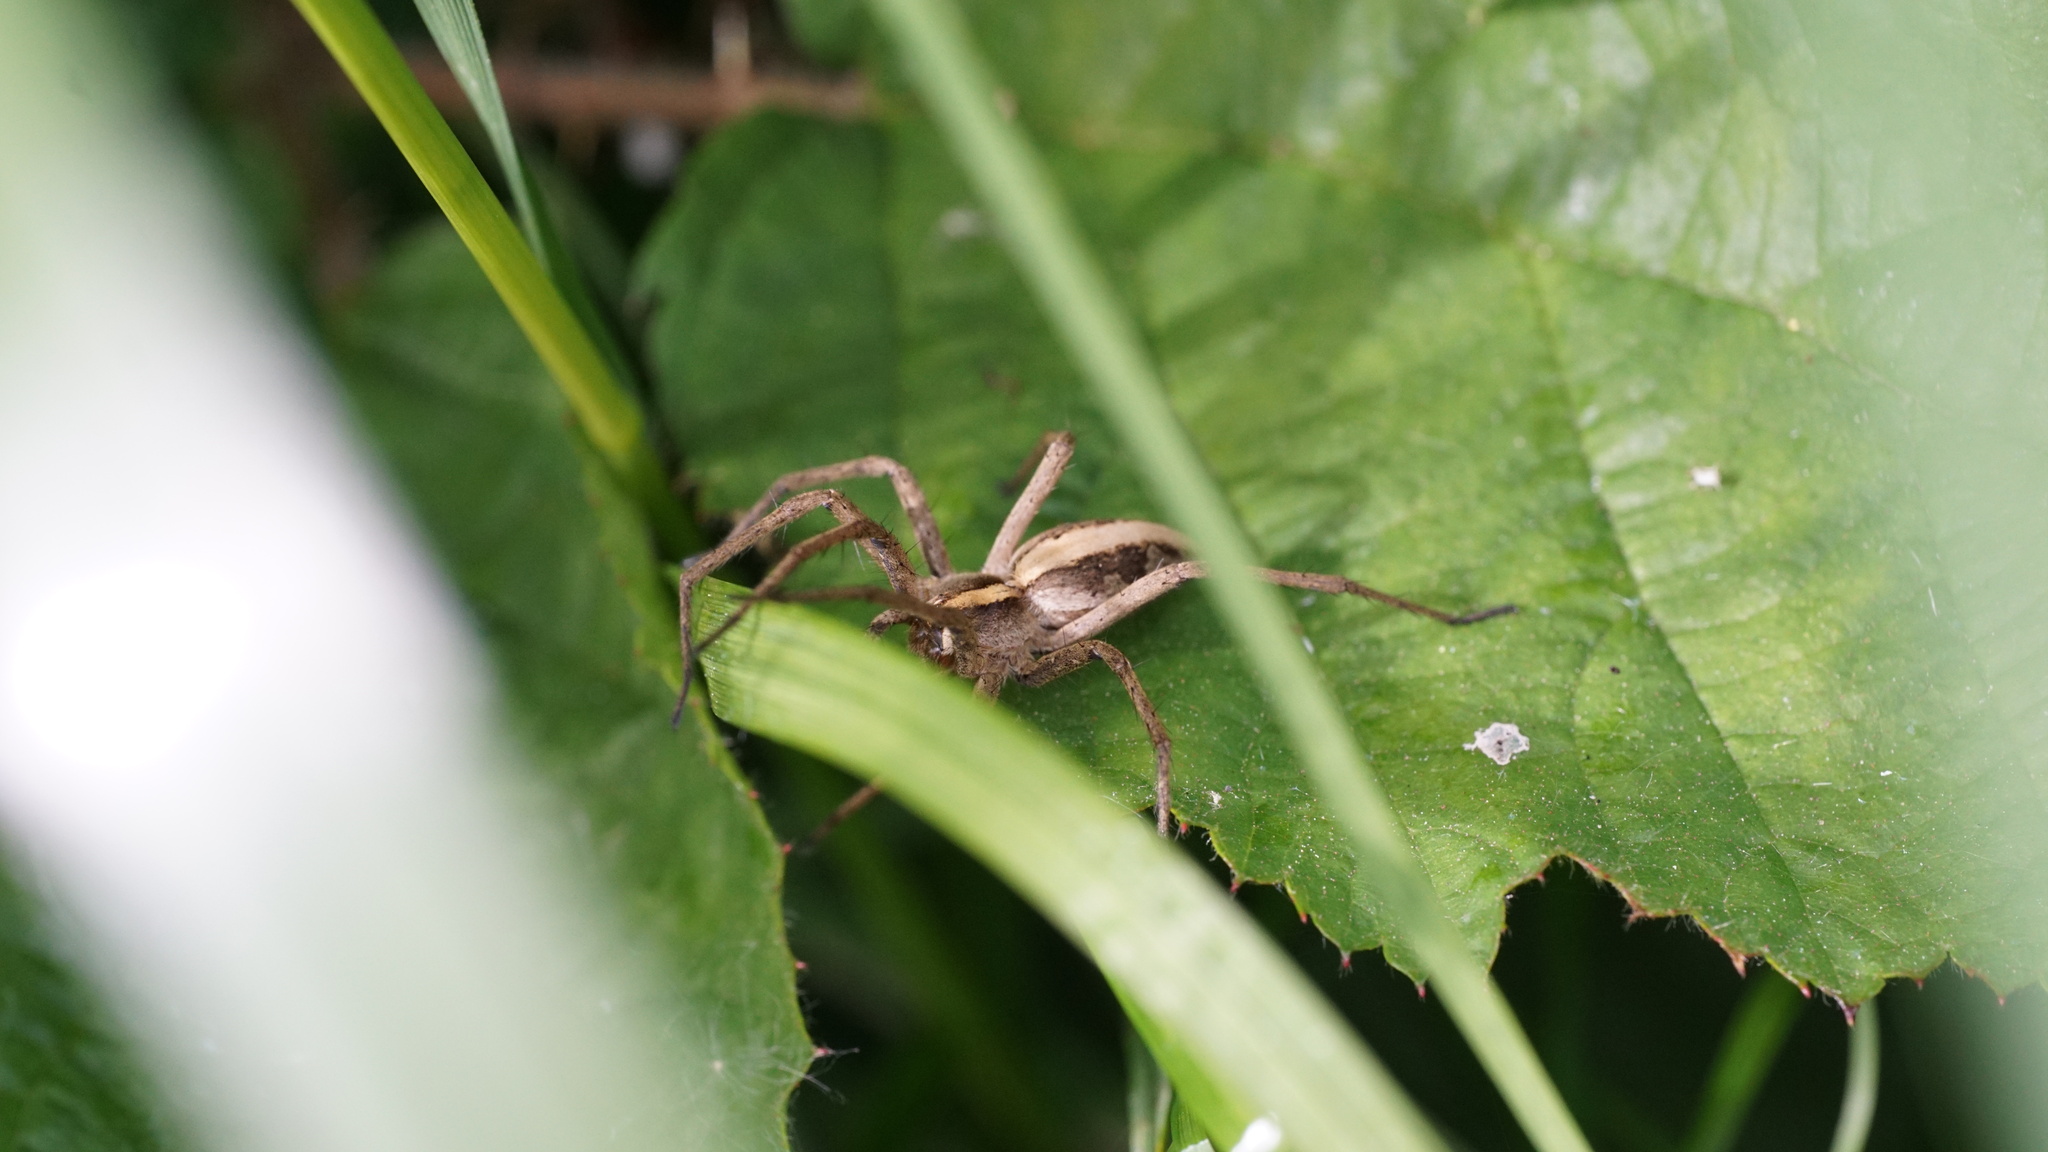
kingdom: Animalia
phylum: Arthropoda
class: Arachnida
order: Araneae
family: Pisauridae
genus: Pisaura
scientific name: Pisaura mirabilis
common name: Tent spider
